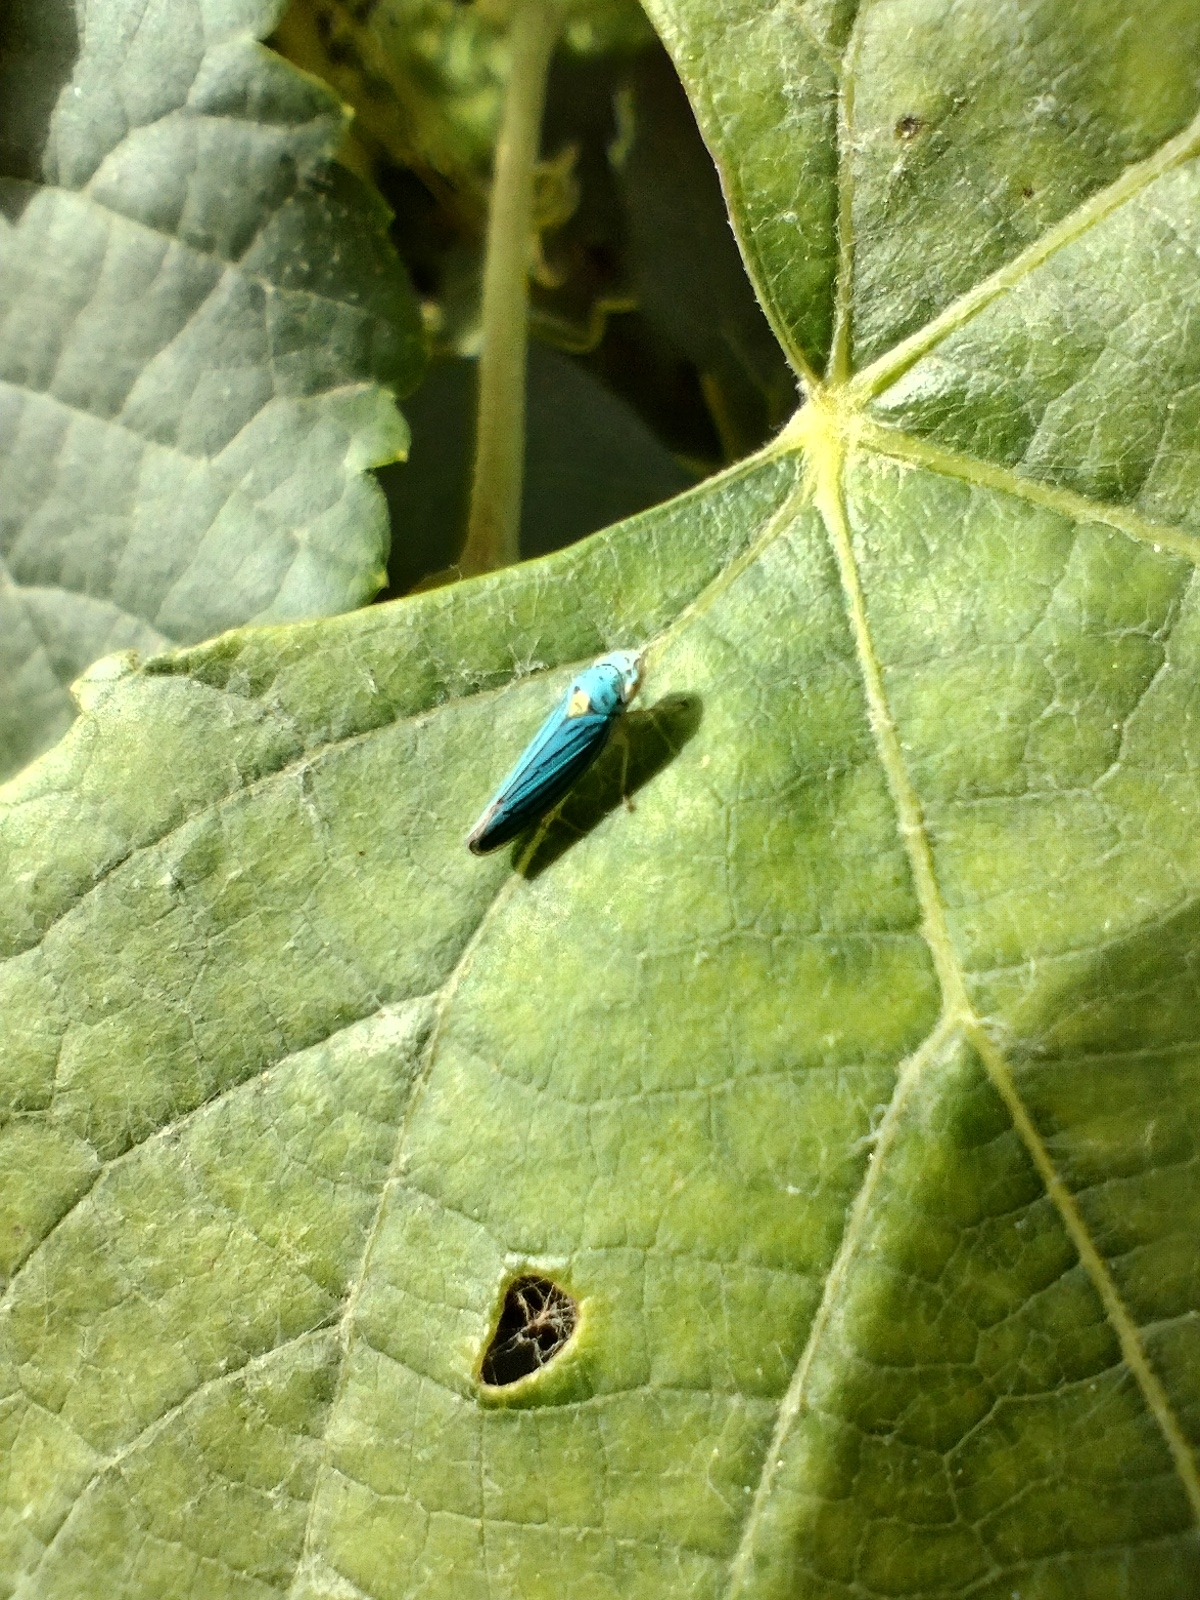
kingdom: Animalia
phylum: Arthropoda
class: Insecta
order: Hemiptera
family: Cicadellidae
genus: Graphocephala
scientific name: Graphocephala atropunctata
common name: Blue-green sharpshooter
